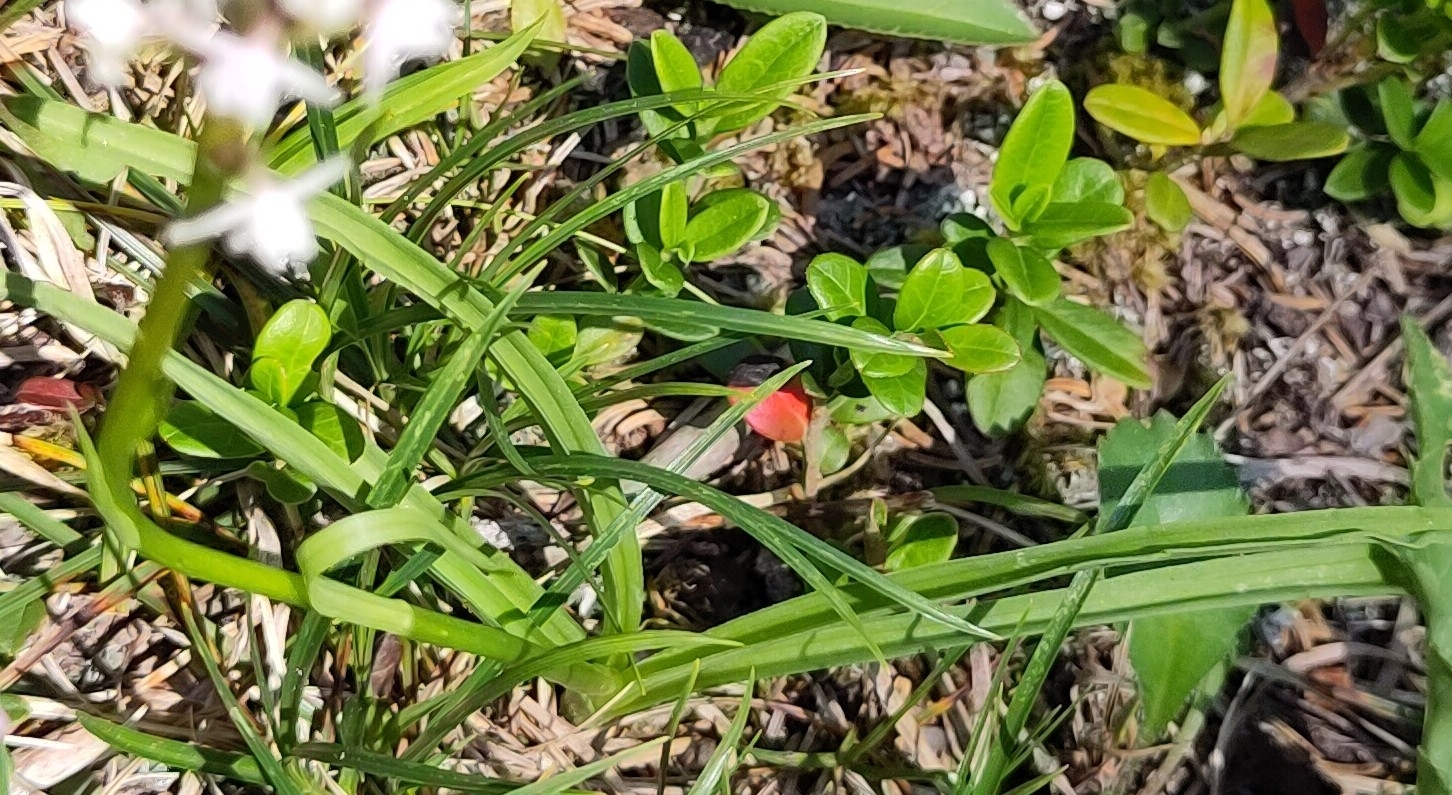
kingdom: Plantae
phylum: Tracheophyta
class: Liliopsida
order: Asparagales
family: Orchidaceae
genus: Gymnadenia
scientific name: Gymnadenia odoratissima
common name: Scented gymnadenia
